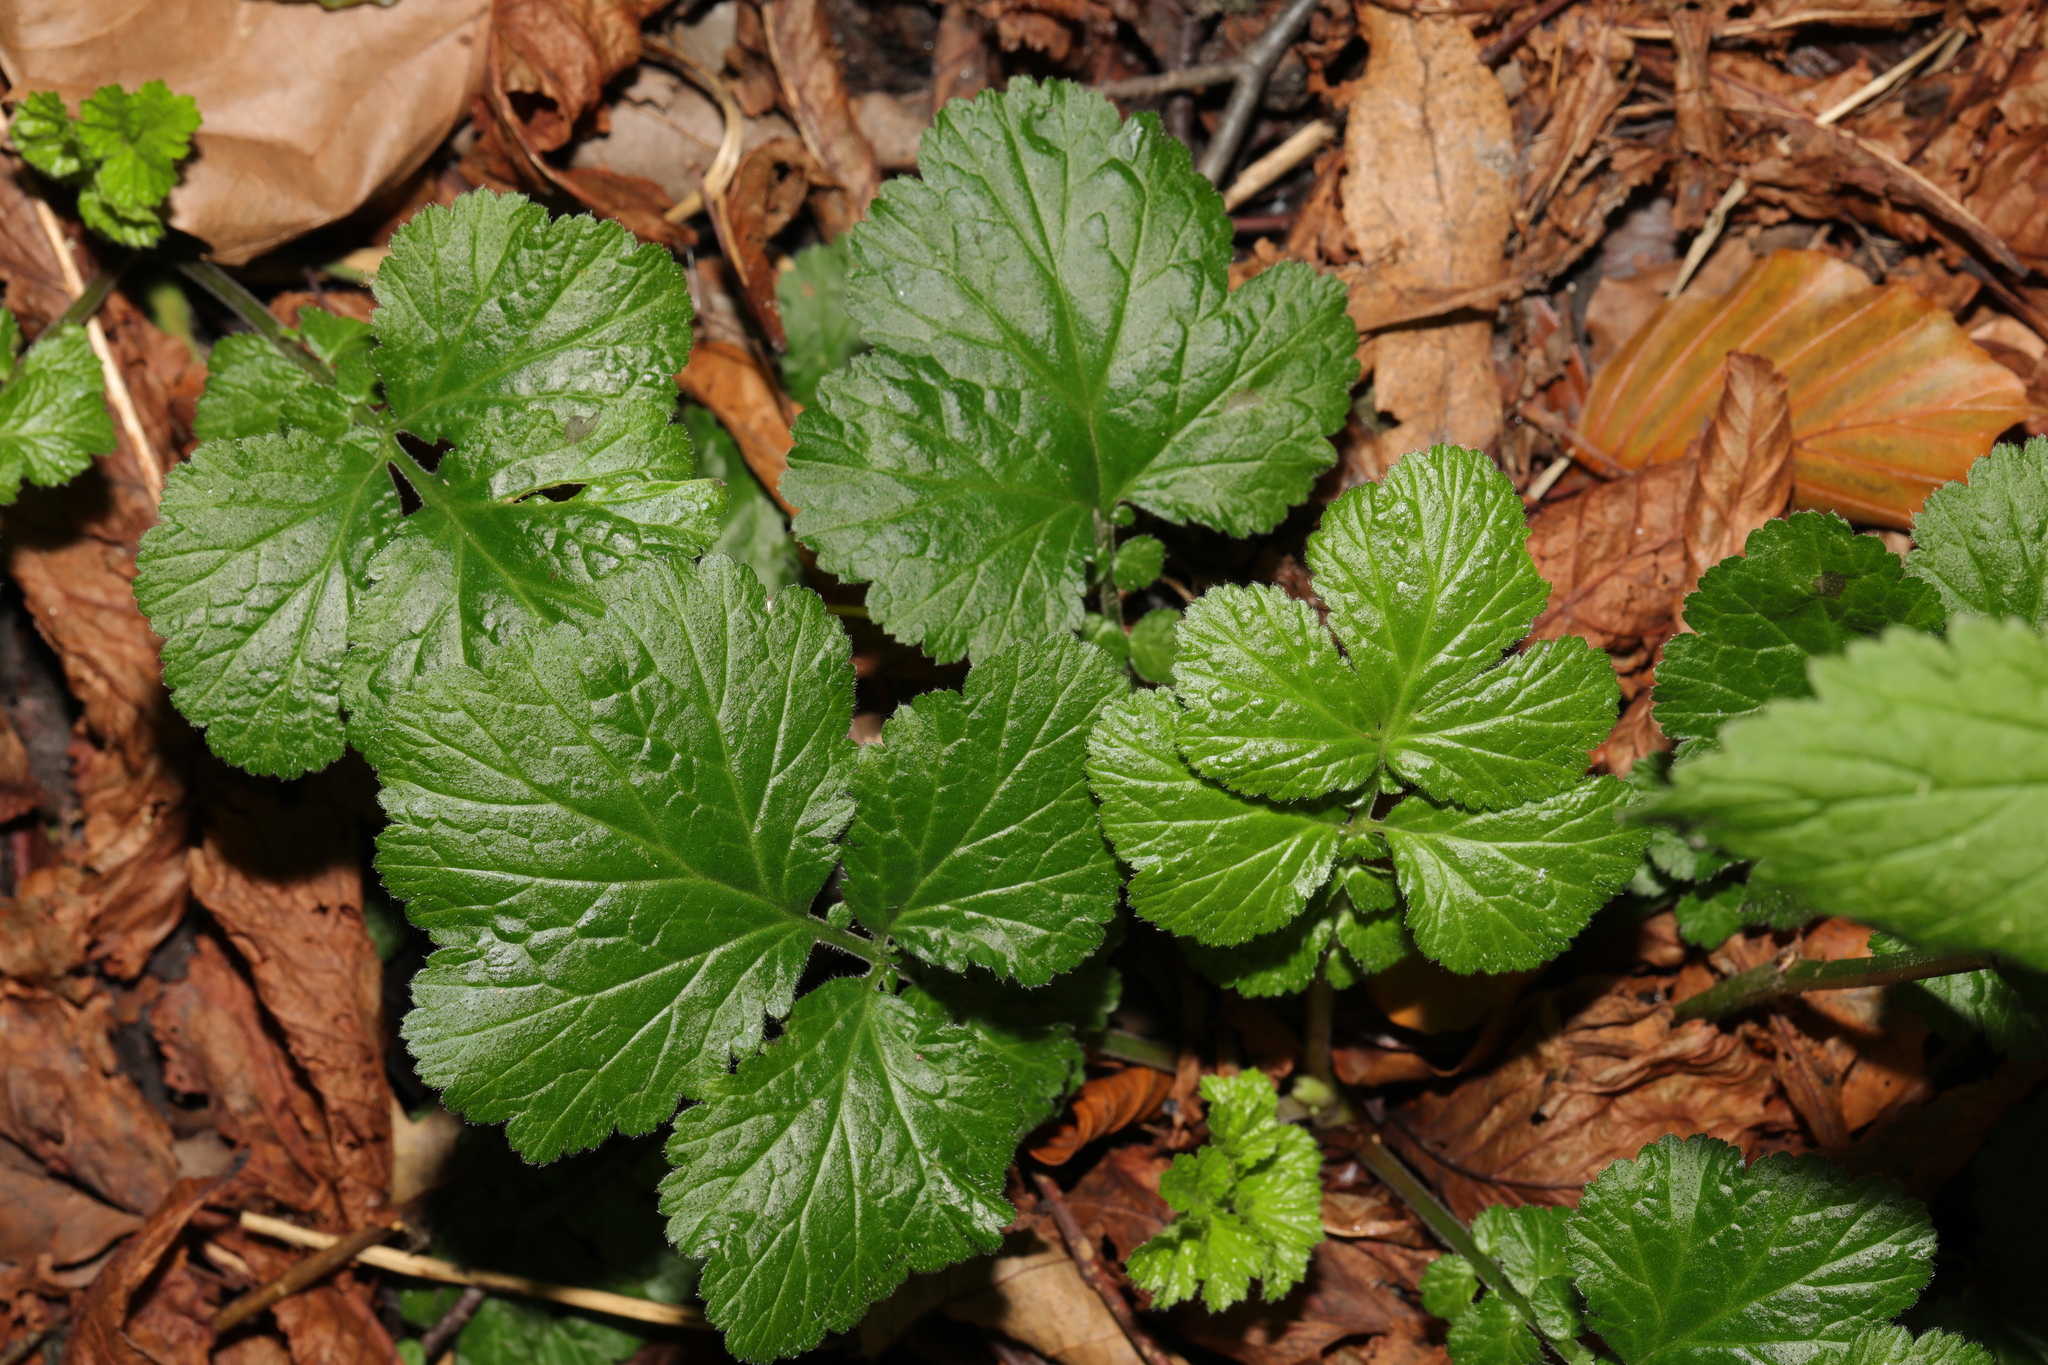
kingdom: Plantae
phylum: Tracheophyta
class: Magnoliopsida
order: Rosales
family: Rosaceae
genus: Geum
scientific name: Geum urbanum
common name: Wood avens
